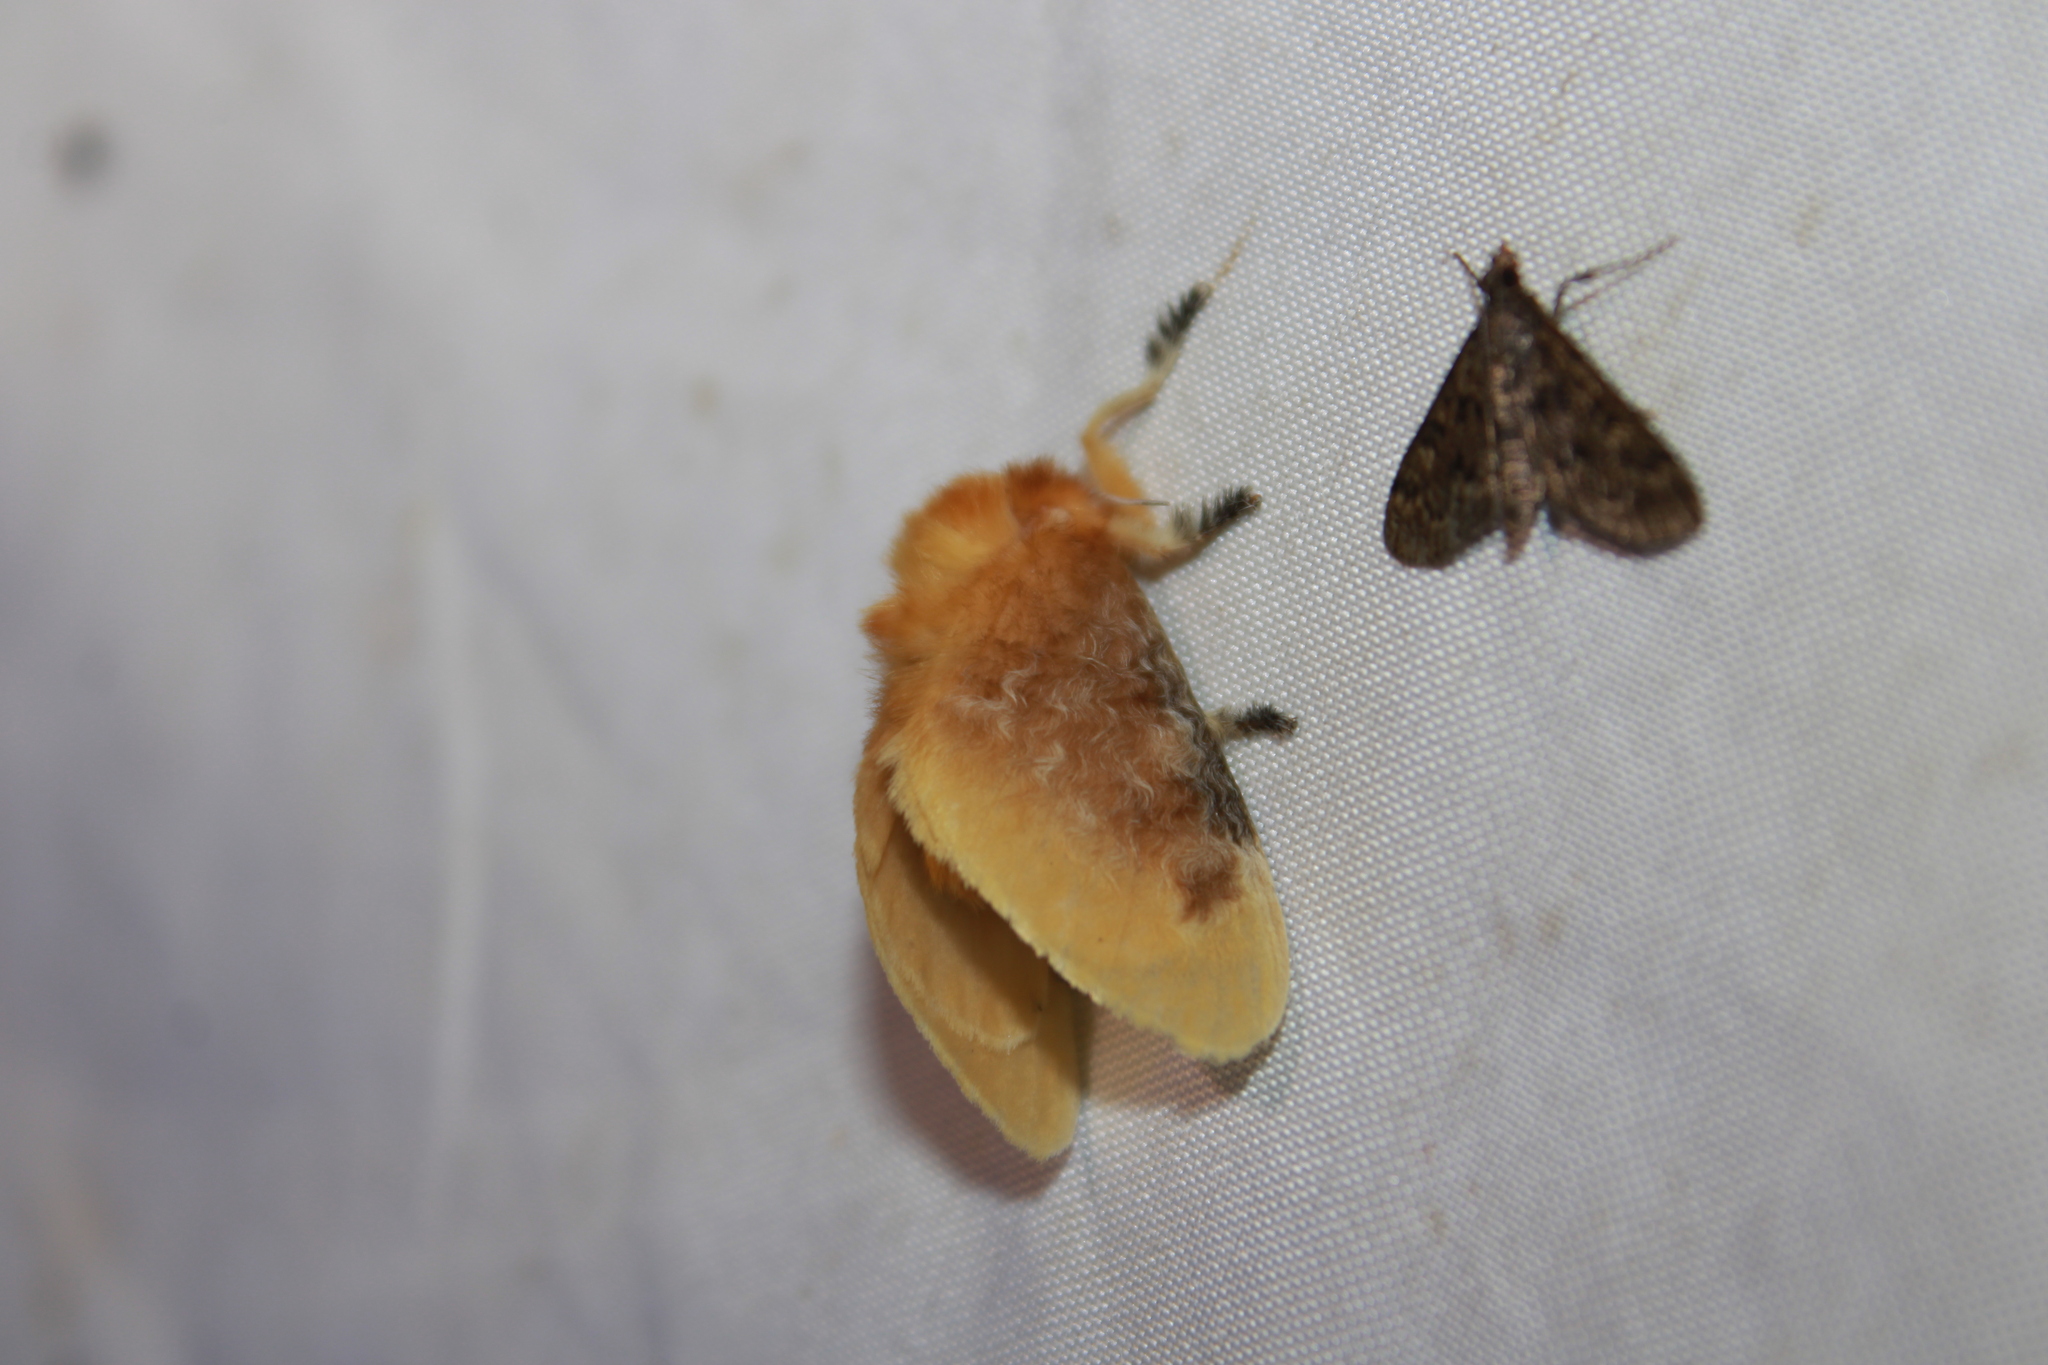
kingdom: Animalia
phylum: Arthropoda
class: Insecta
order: Lepidoptera
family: Megalopygidae
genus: Megalopyge
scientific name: Megalopyge opercularis
